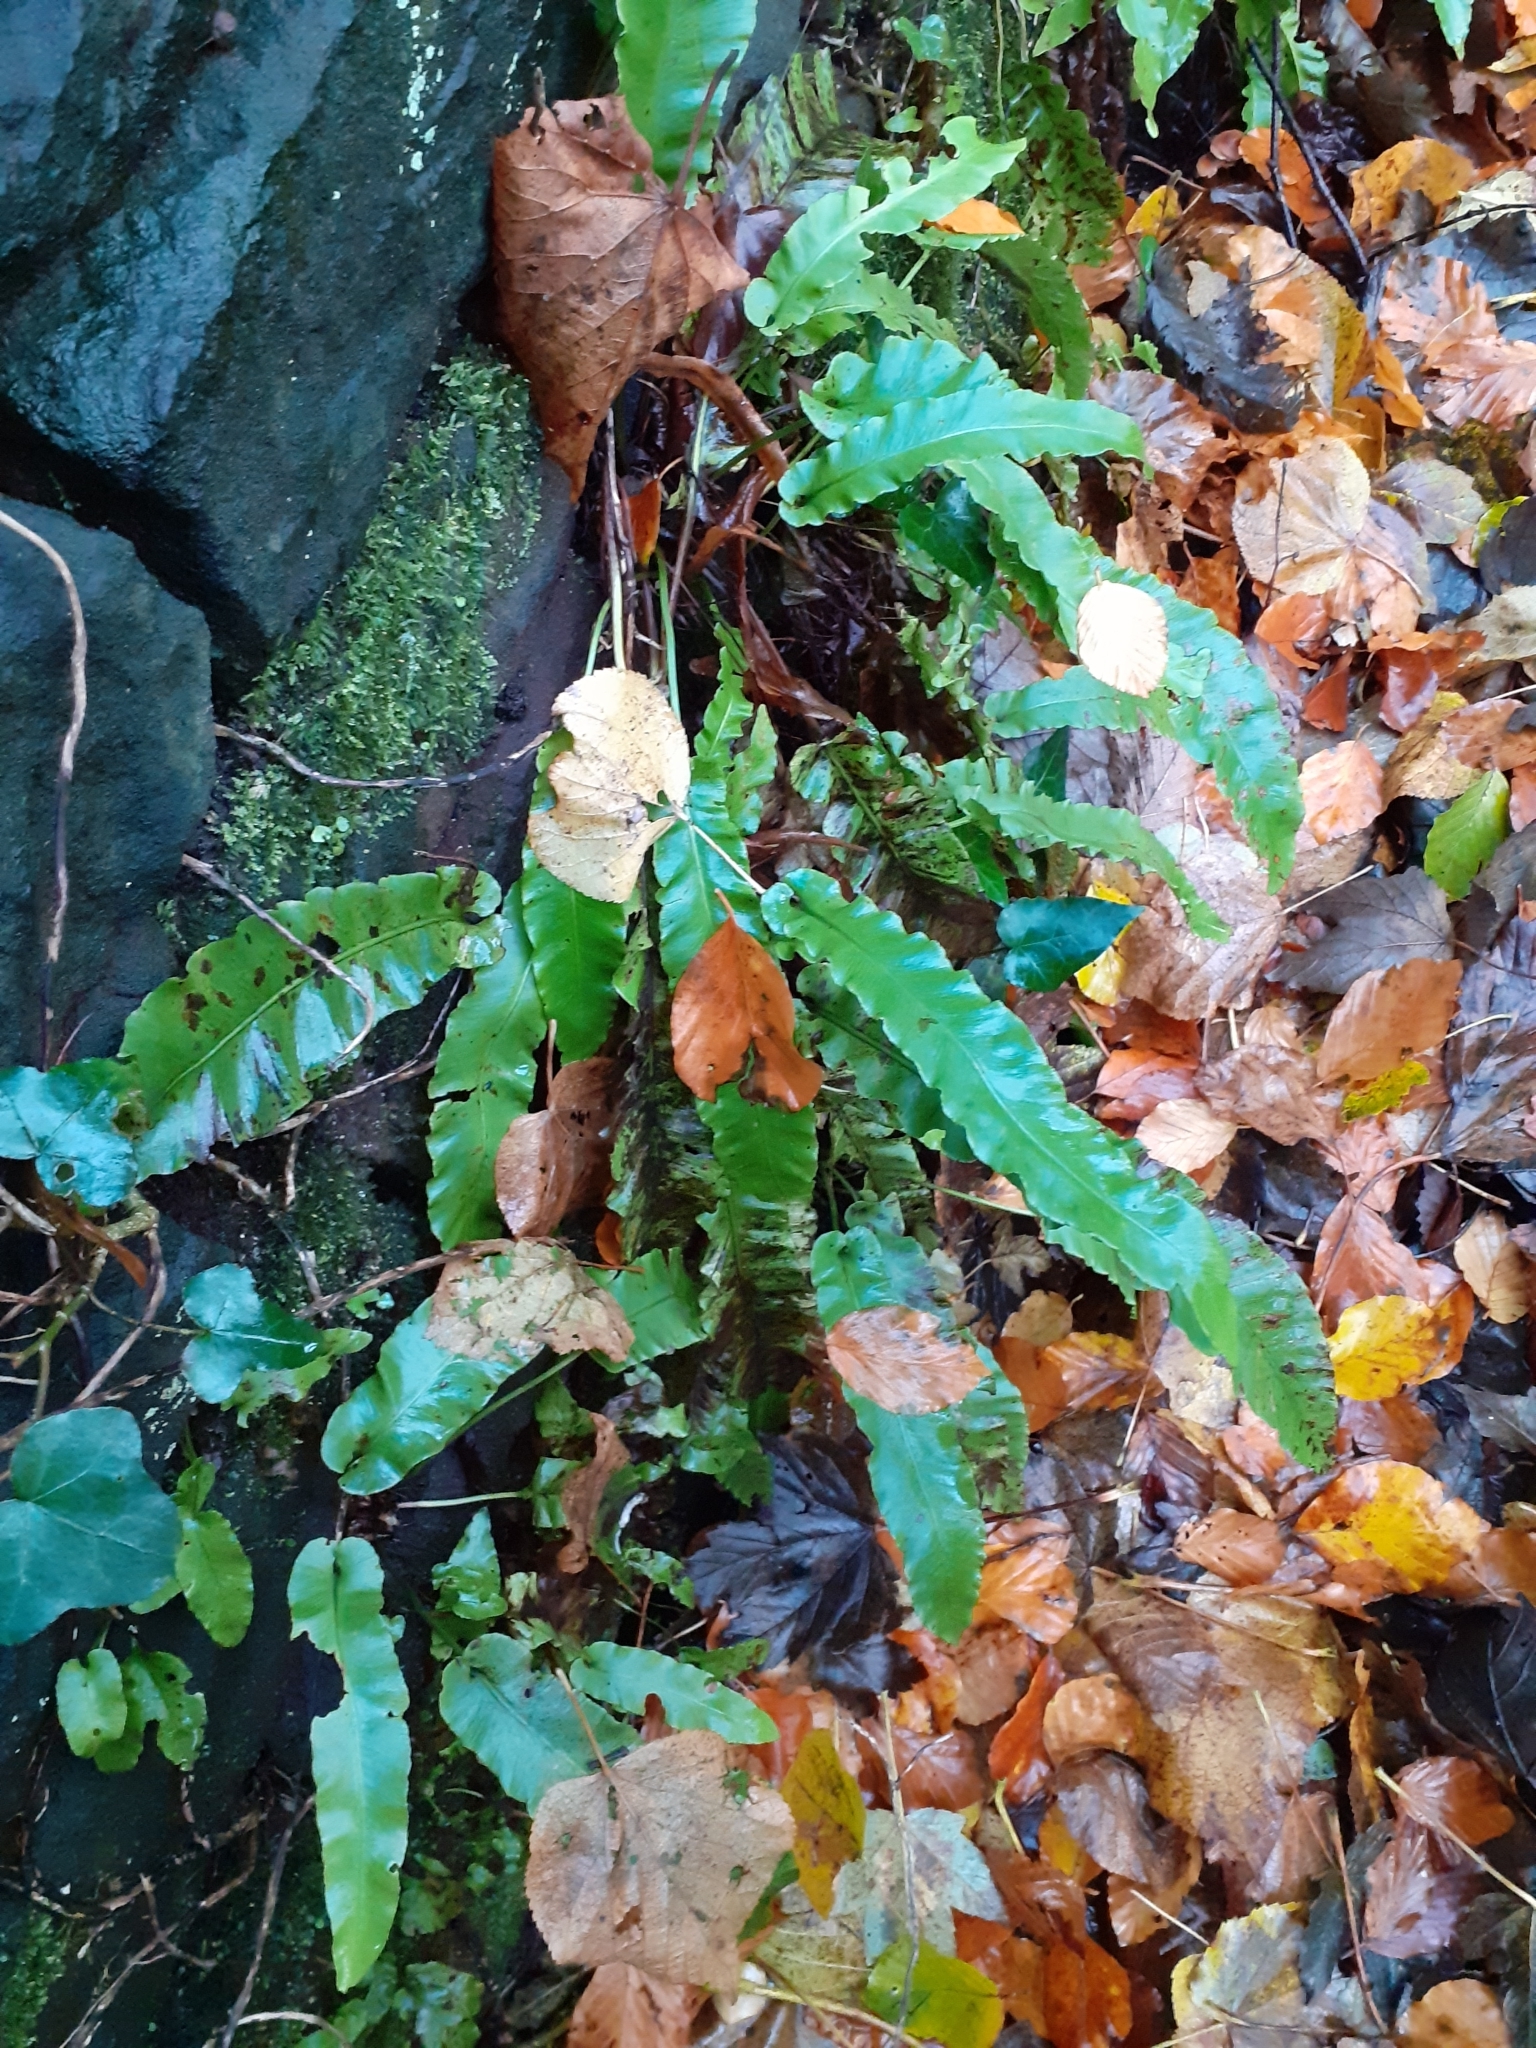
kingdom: Plantae
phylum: Tracheophyta
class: Polypodiopsida
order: Polypodiales
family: Aspleniaceae
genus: Asplenium
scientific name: Asplenium scolopendrium
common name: Hart's-tongue fern
